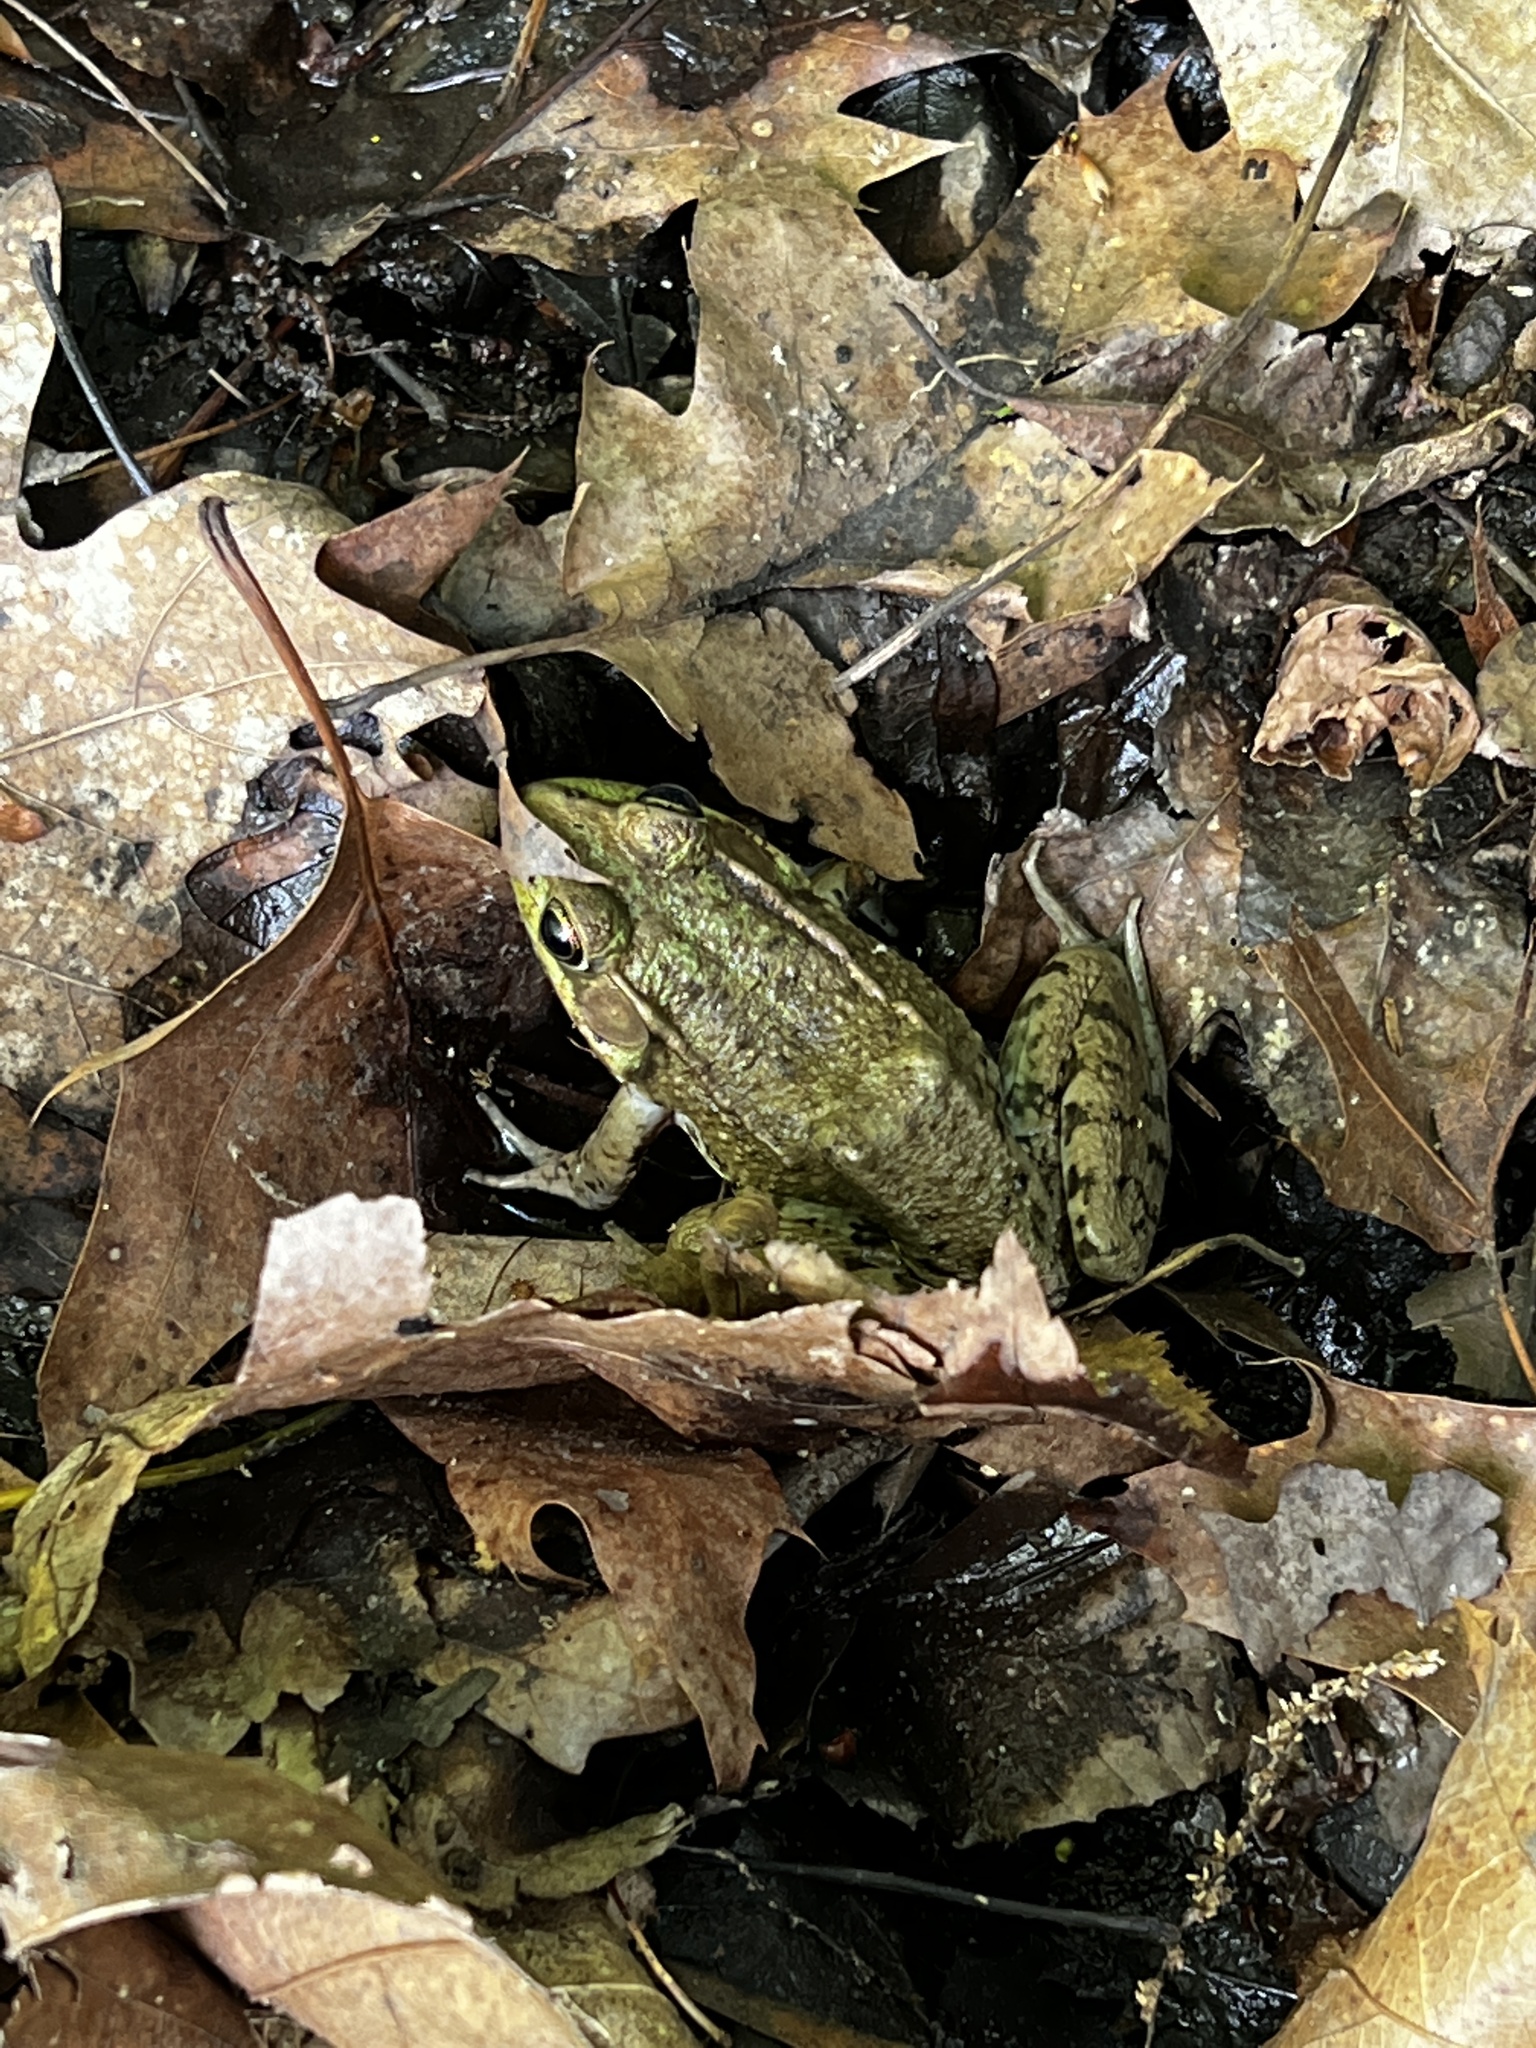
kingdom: Animalia
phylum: Chordata
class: Amphibia
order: Anura
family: Ranidae
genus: Lithobates
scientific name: Lithobates clamitans
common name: Green frog
